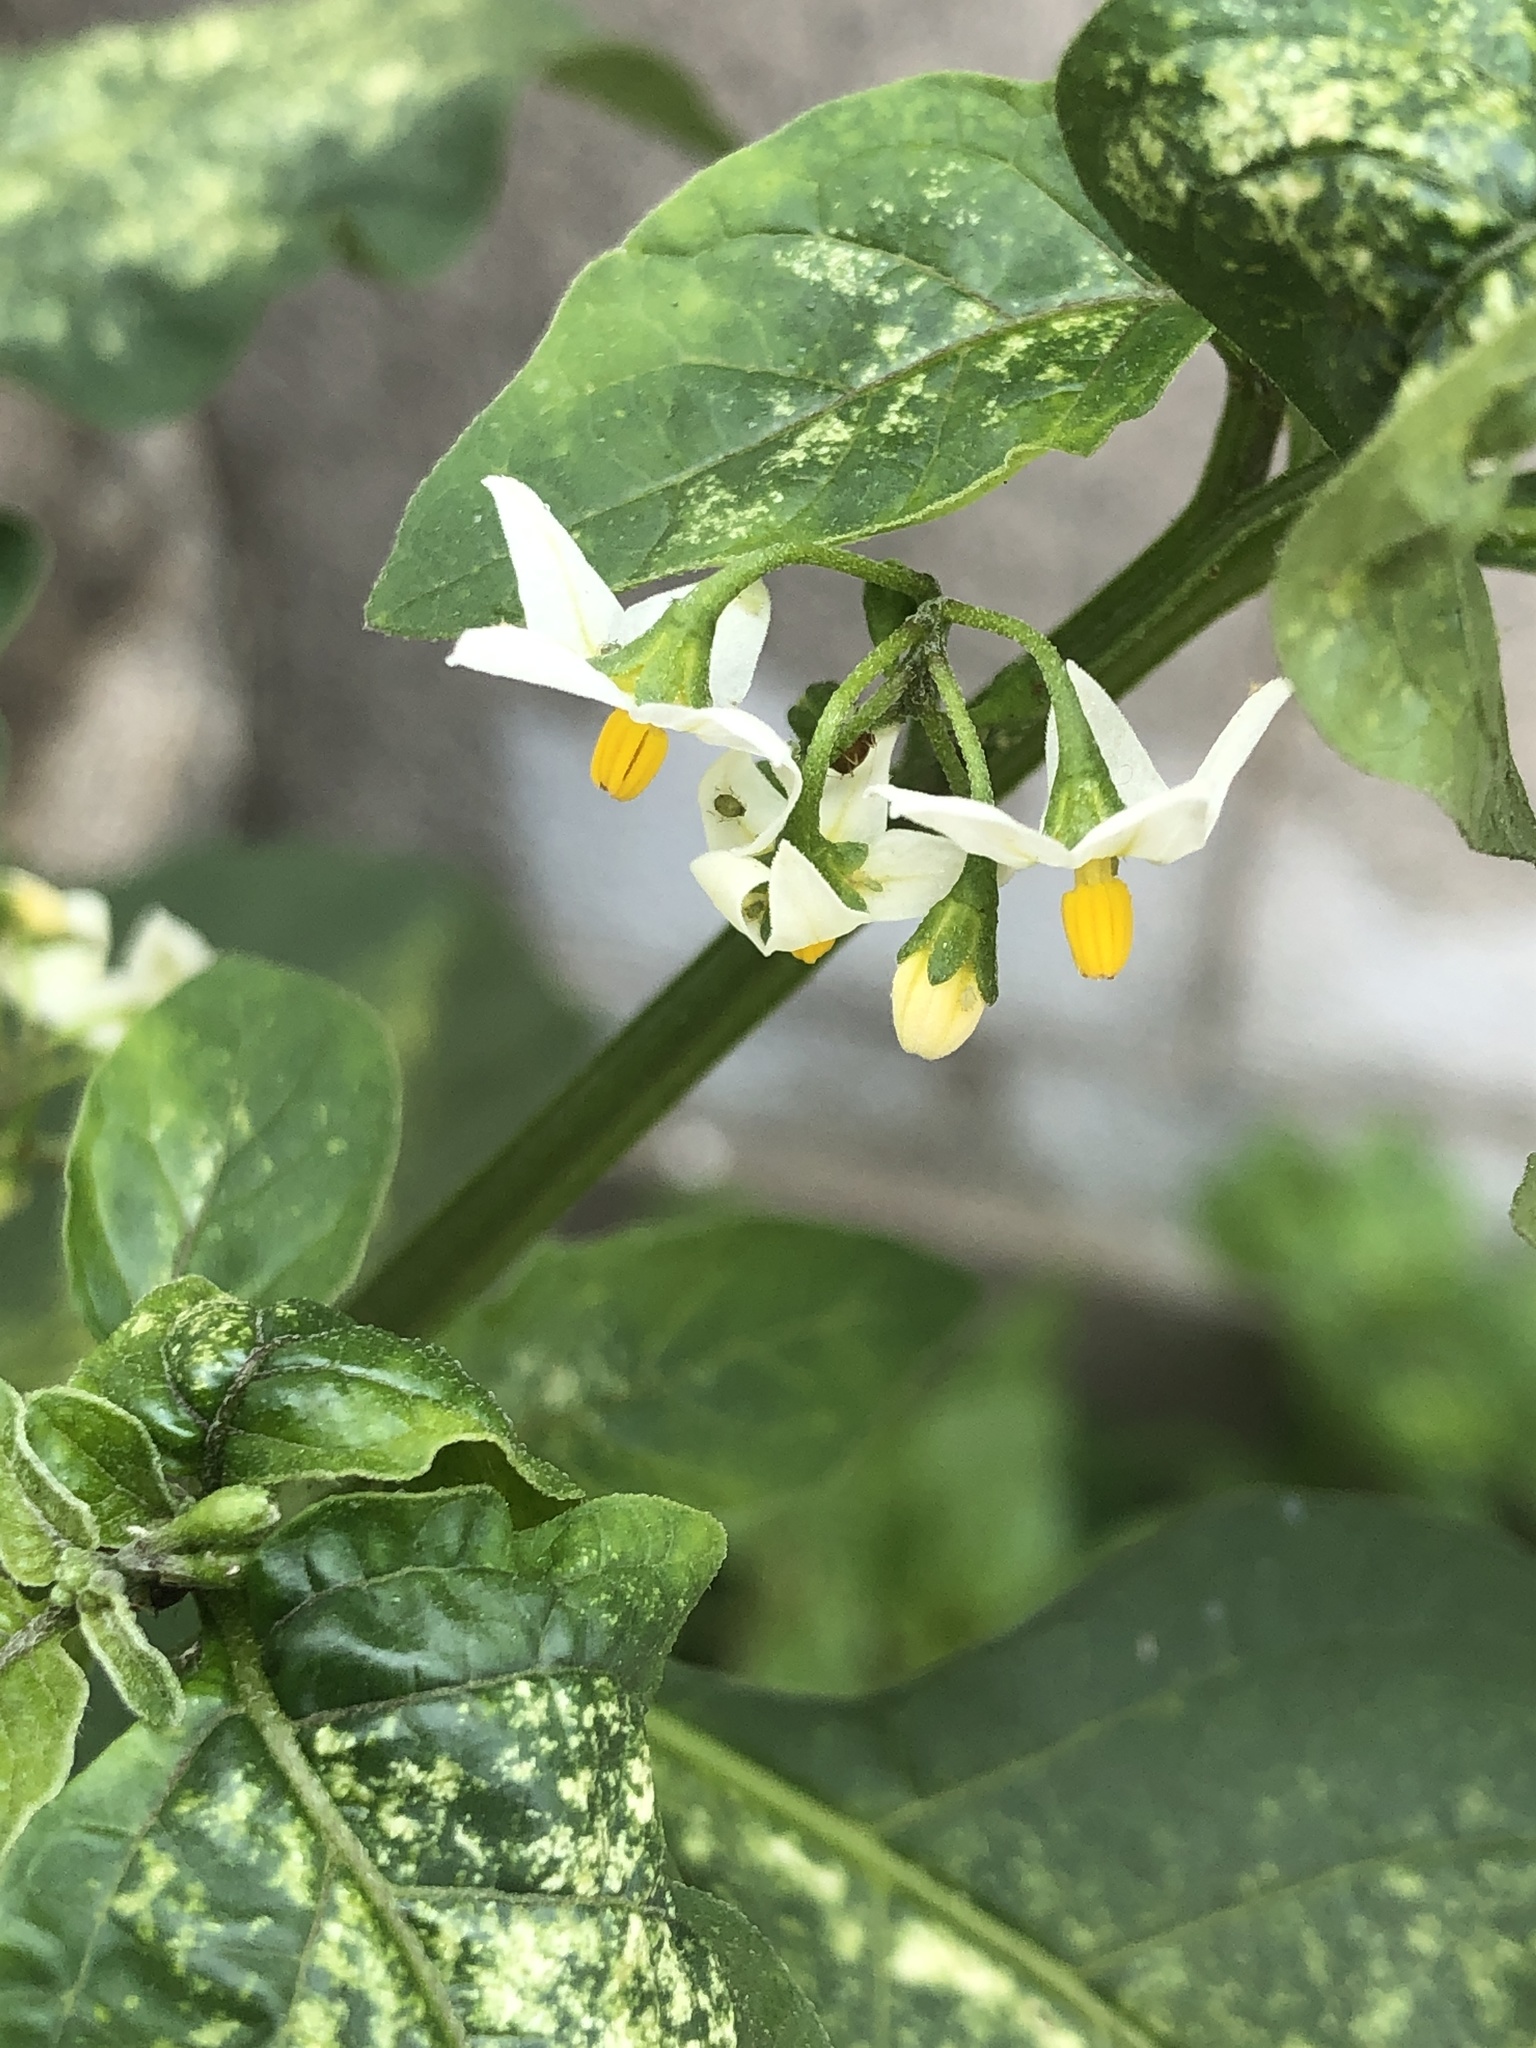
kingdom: Plantae
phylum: Tracheophyta
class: Magnoliopsida
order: Solanales
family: Solanaceae
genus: Solanum
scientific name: Solanum nigrum
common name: Black nightshade
